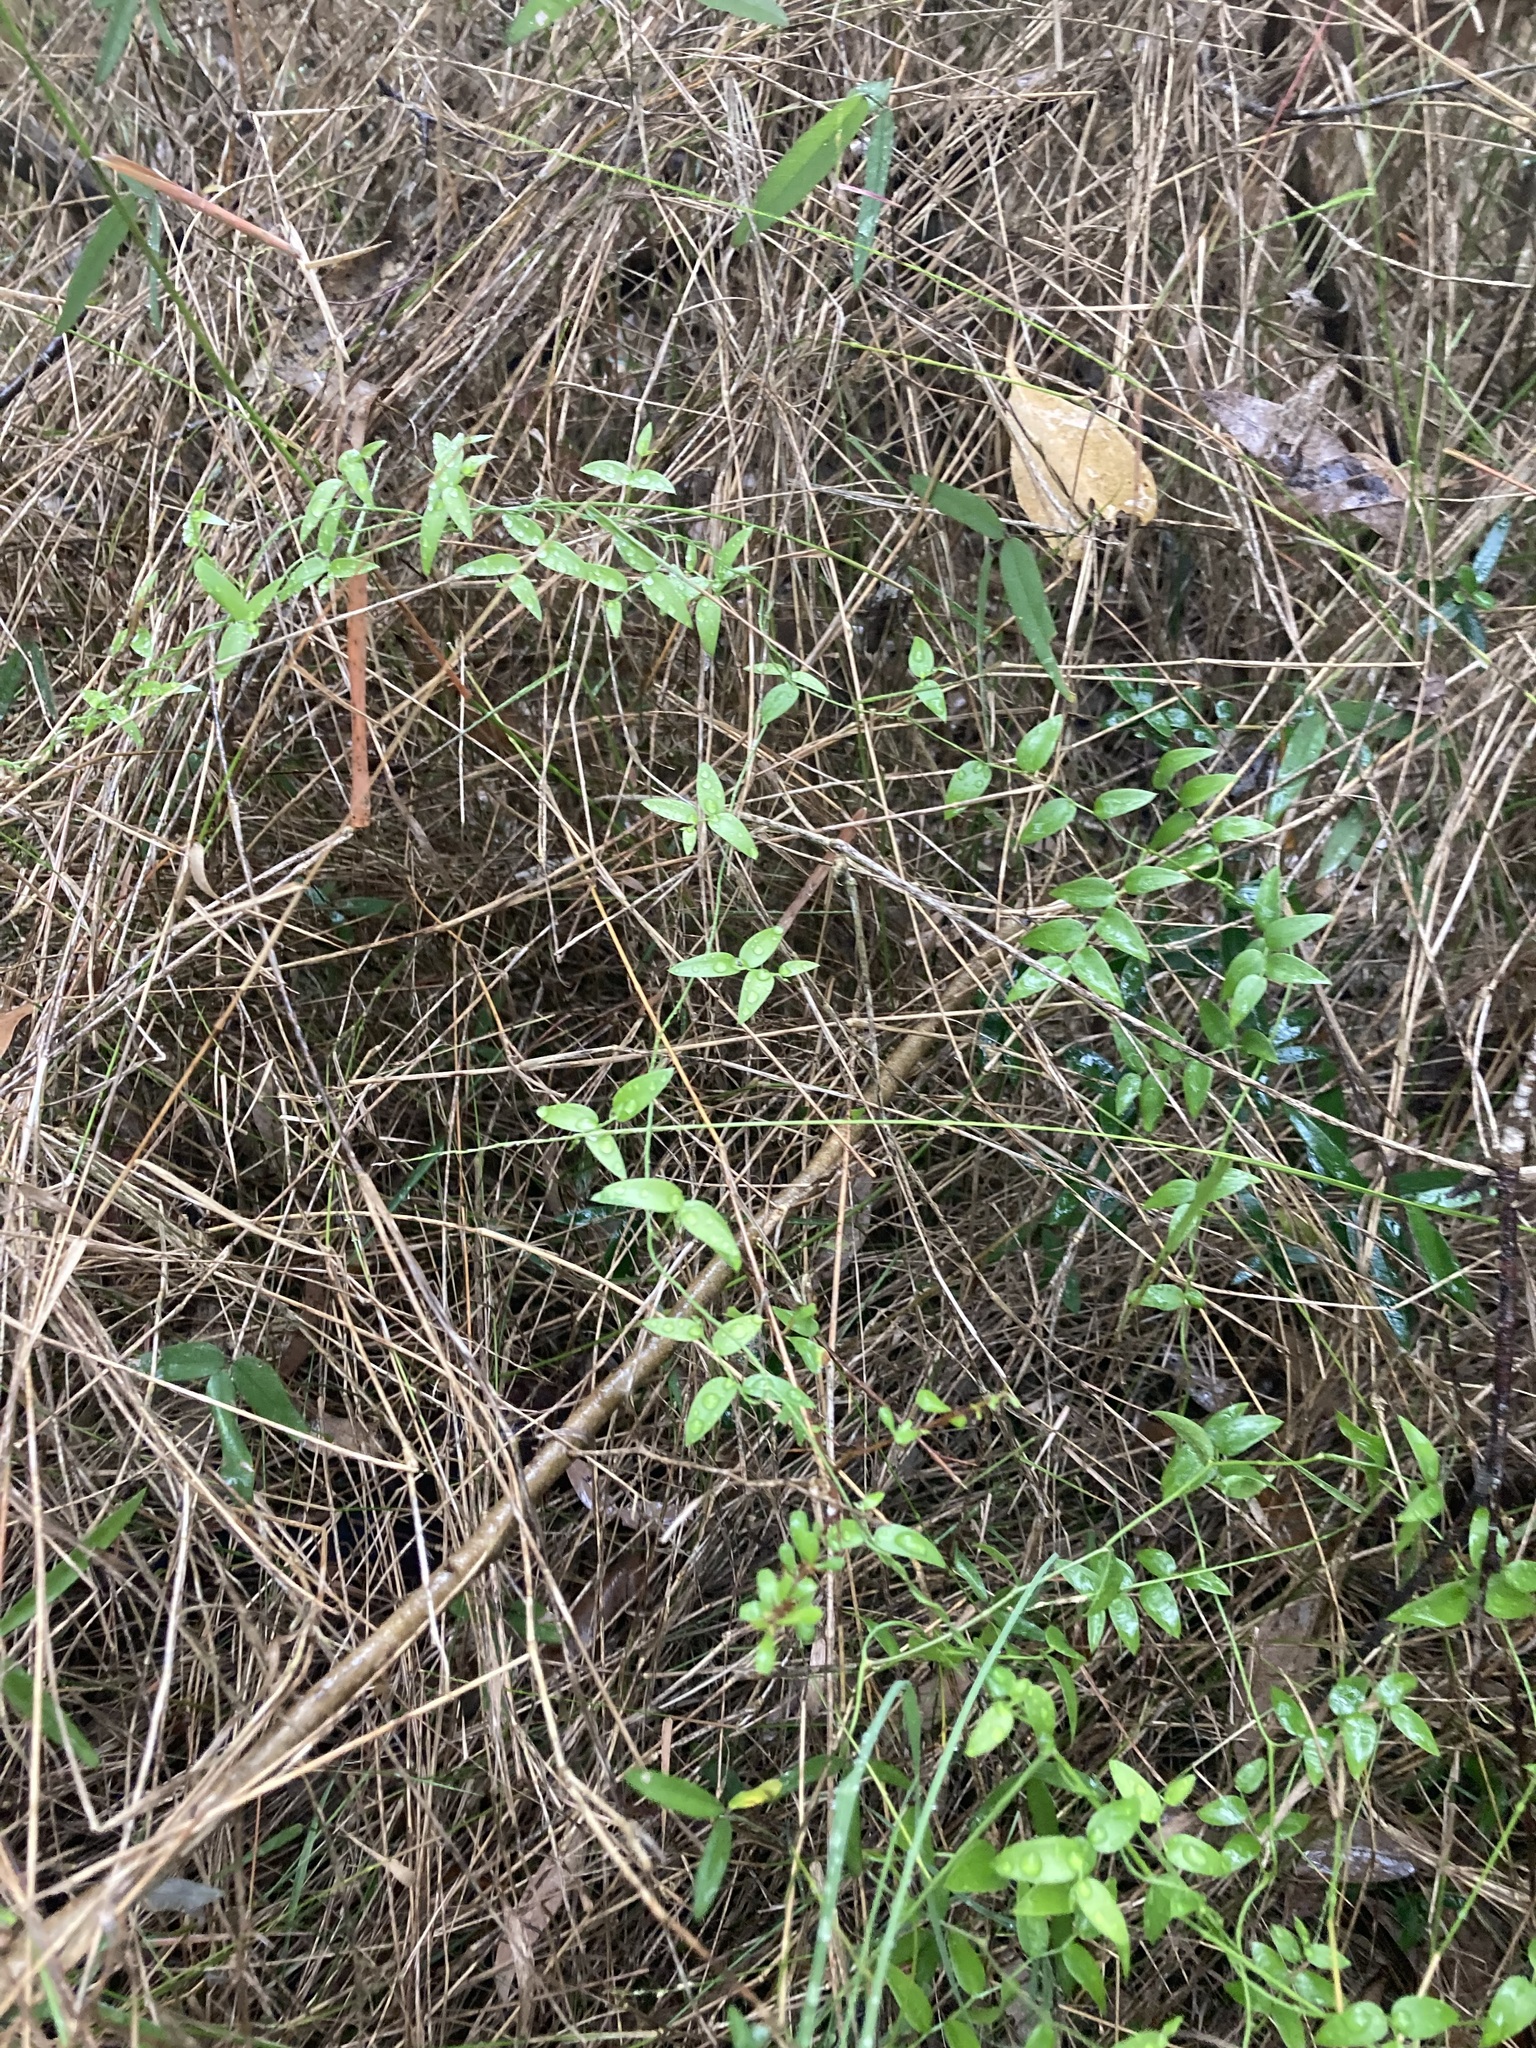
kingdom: Plantae
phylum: Tracheophyta
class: Liliopsida
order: Asparagales
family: Asparagaceae
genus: Asparagus
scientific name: Asparagus asparagoides
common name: African asparagus fern
